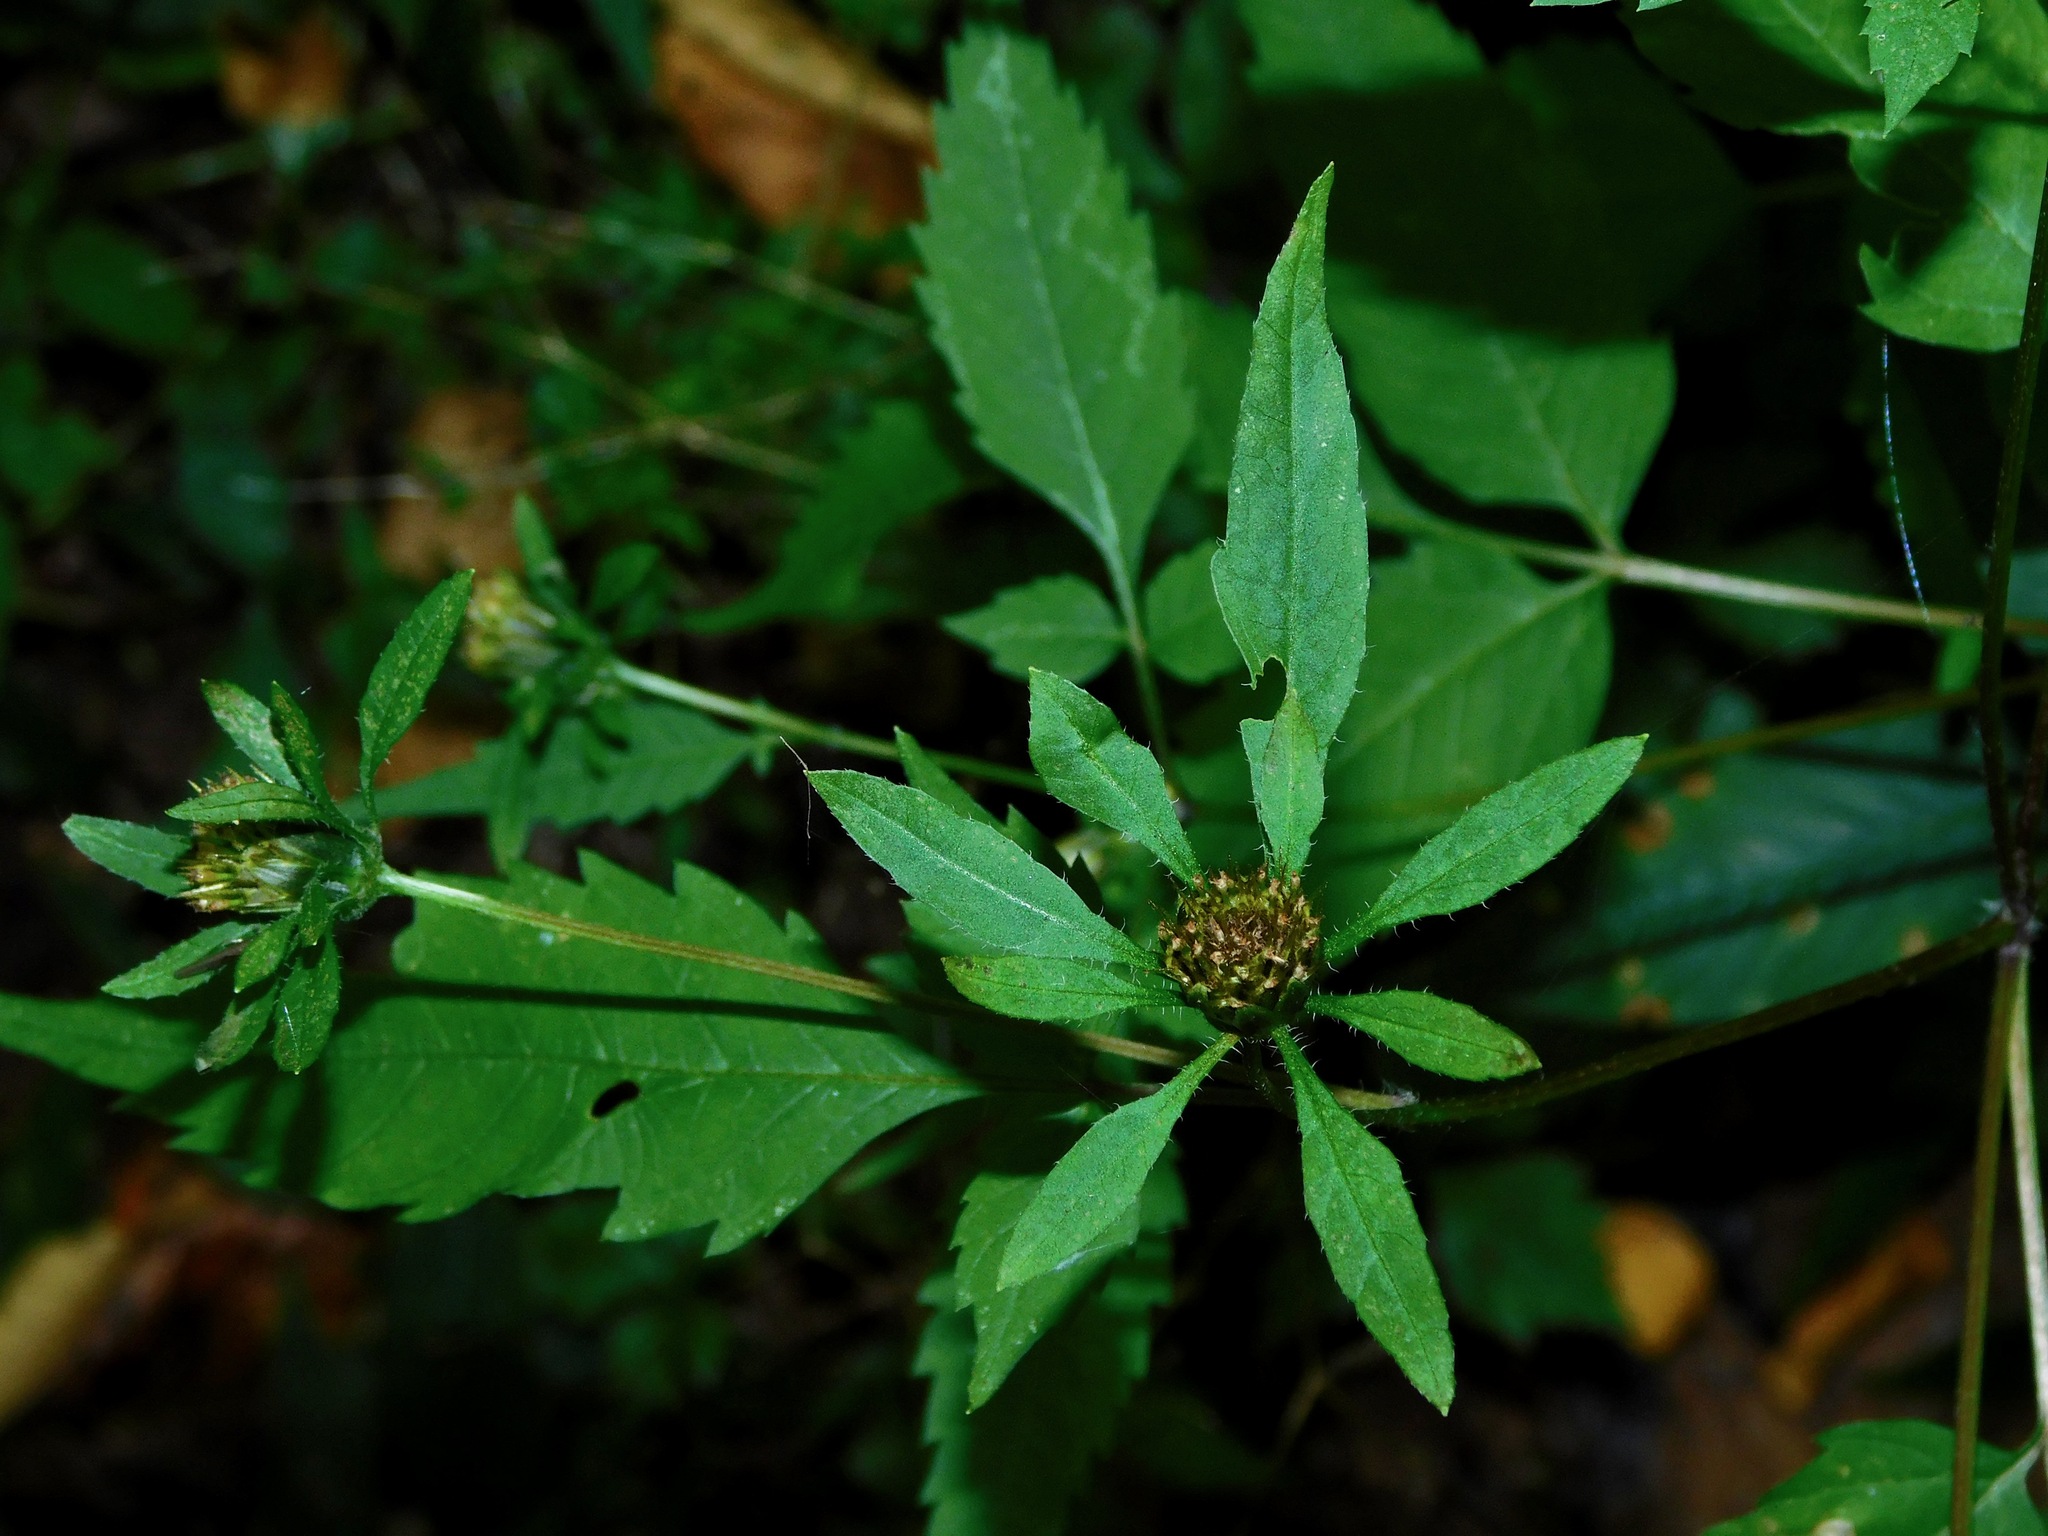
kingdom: Plantae
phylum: Tracheophyta
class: Magnoliopsida
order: Asterales
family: Asteraceae
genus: Bidens
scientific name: Bidens frondosa
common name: Beggarticks
